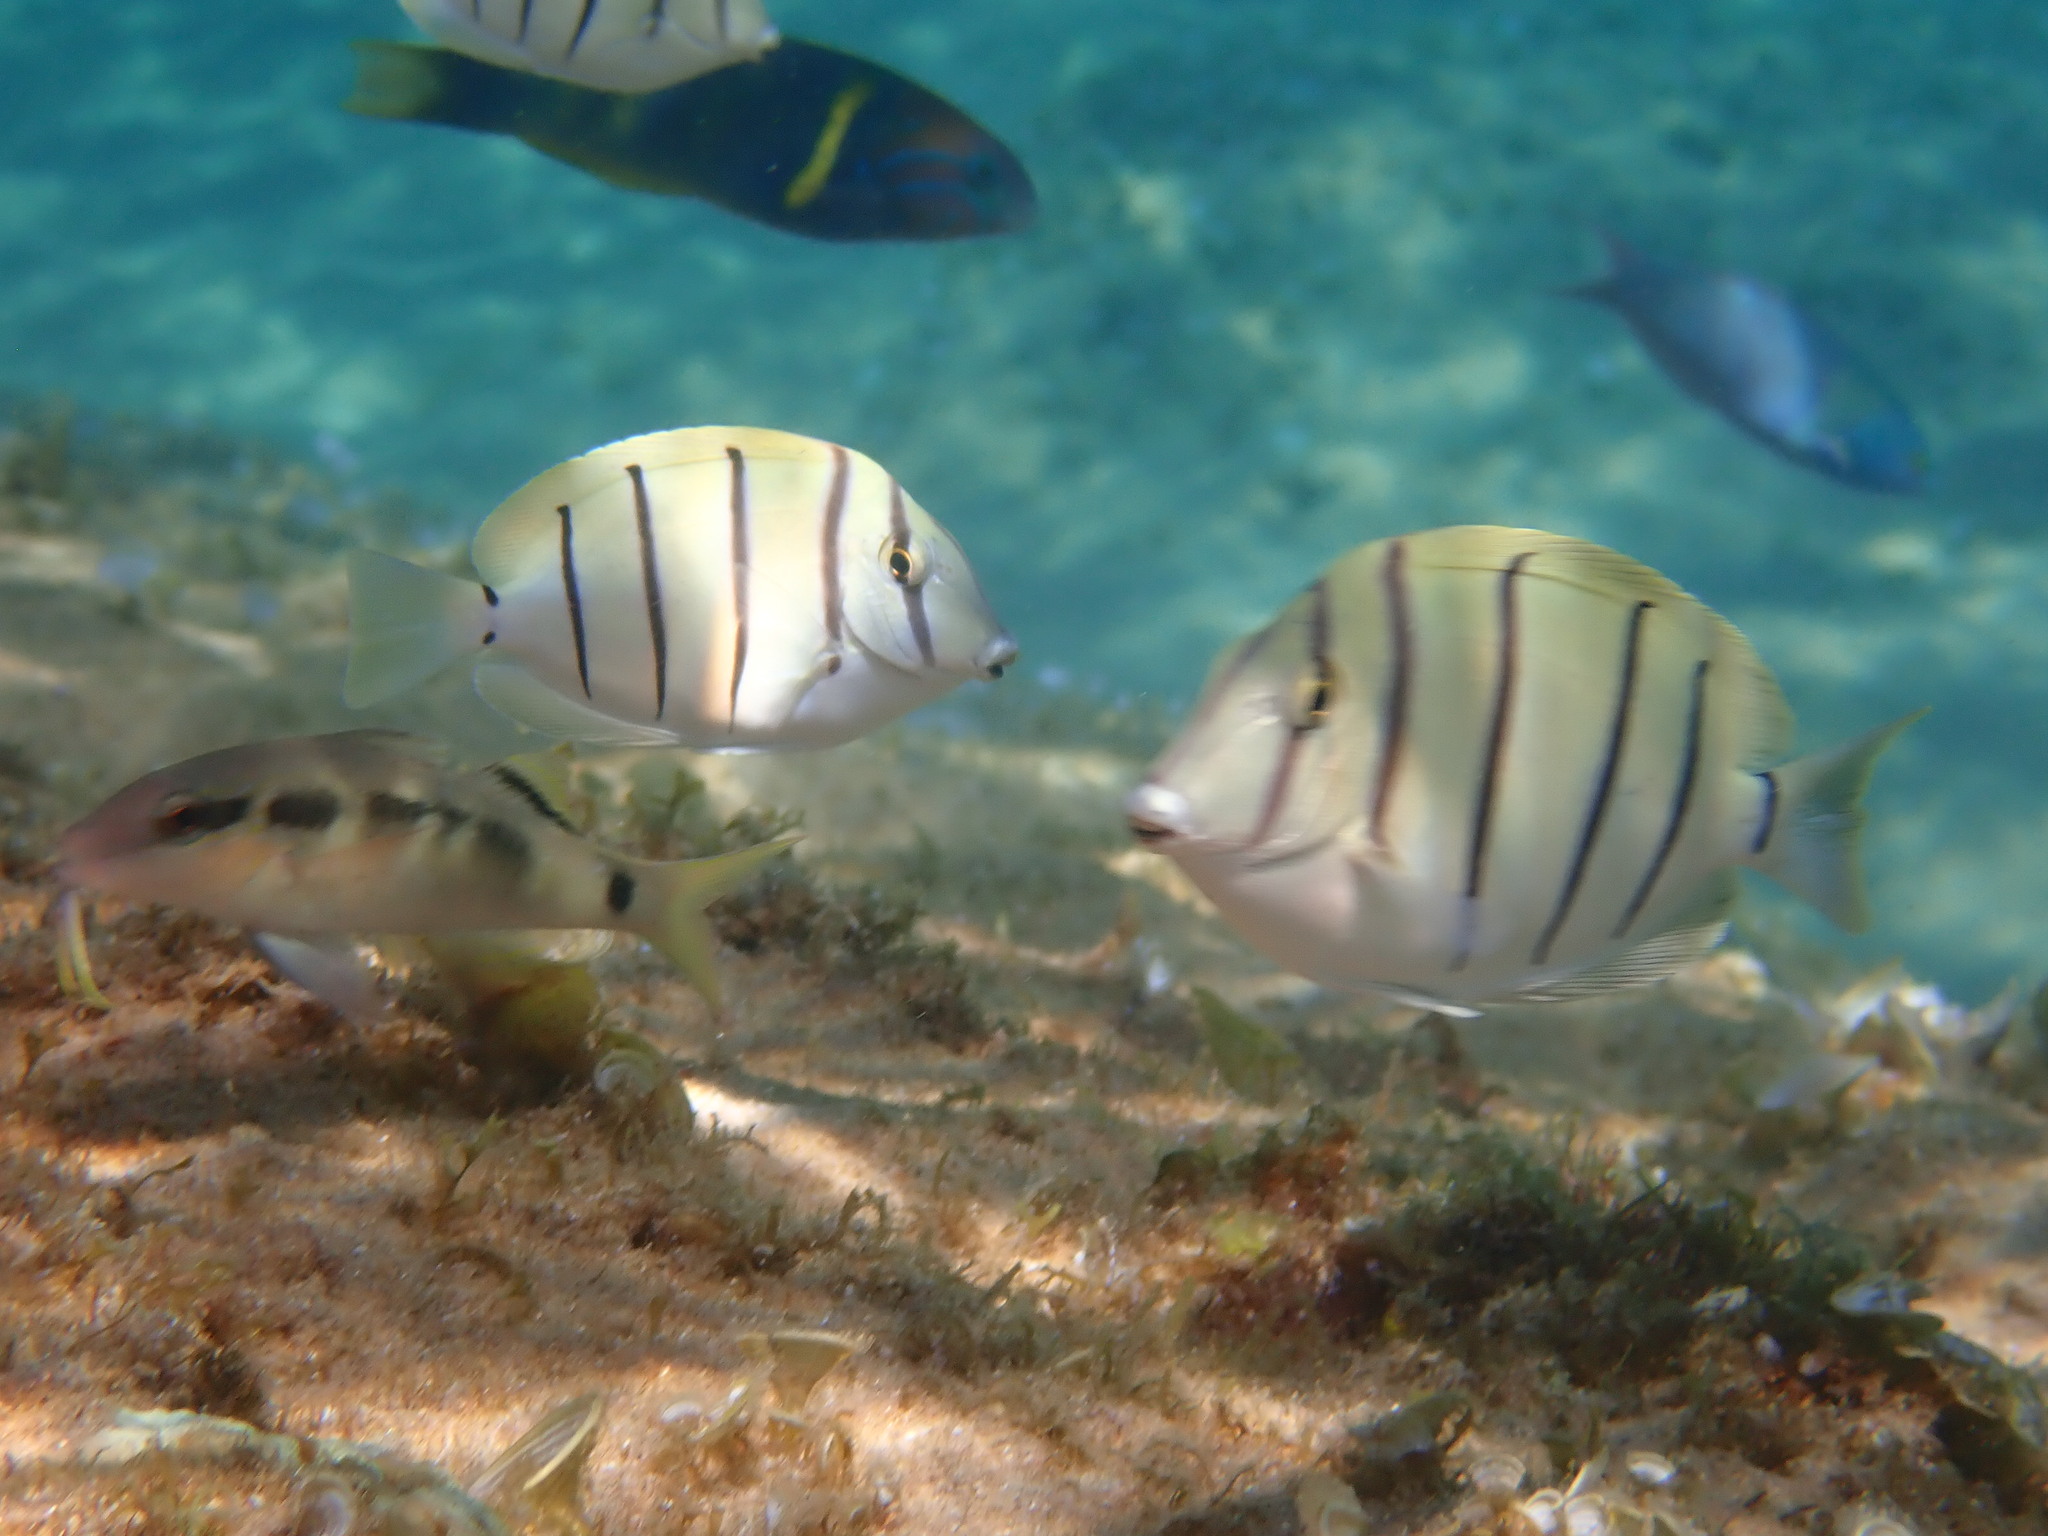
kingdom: Animalia
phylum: Chordata
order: Perciformes
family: Acanthuridae
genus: Acanthurus
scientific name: Acanthurus triostegus
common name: Convict surgeonfish
